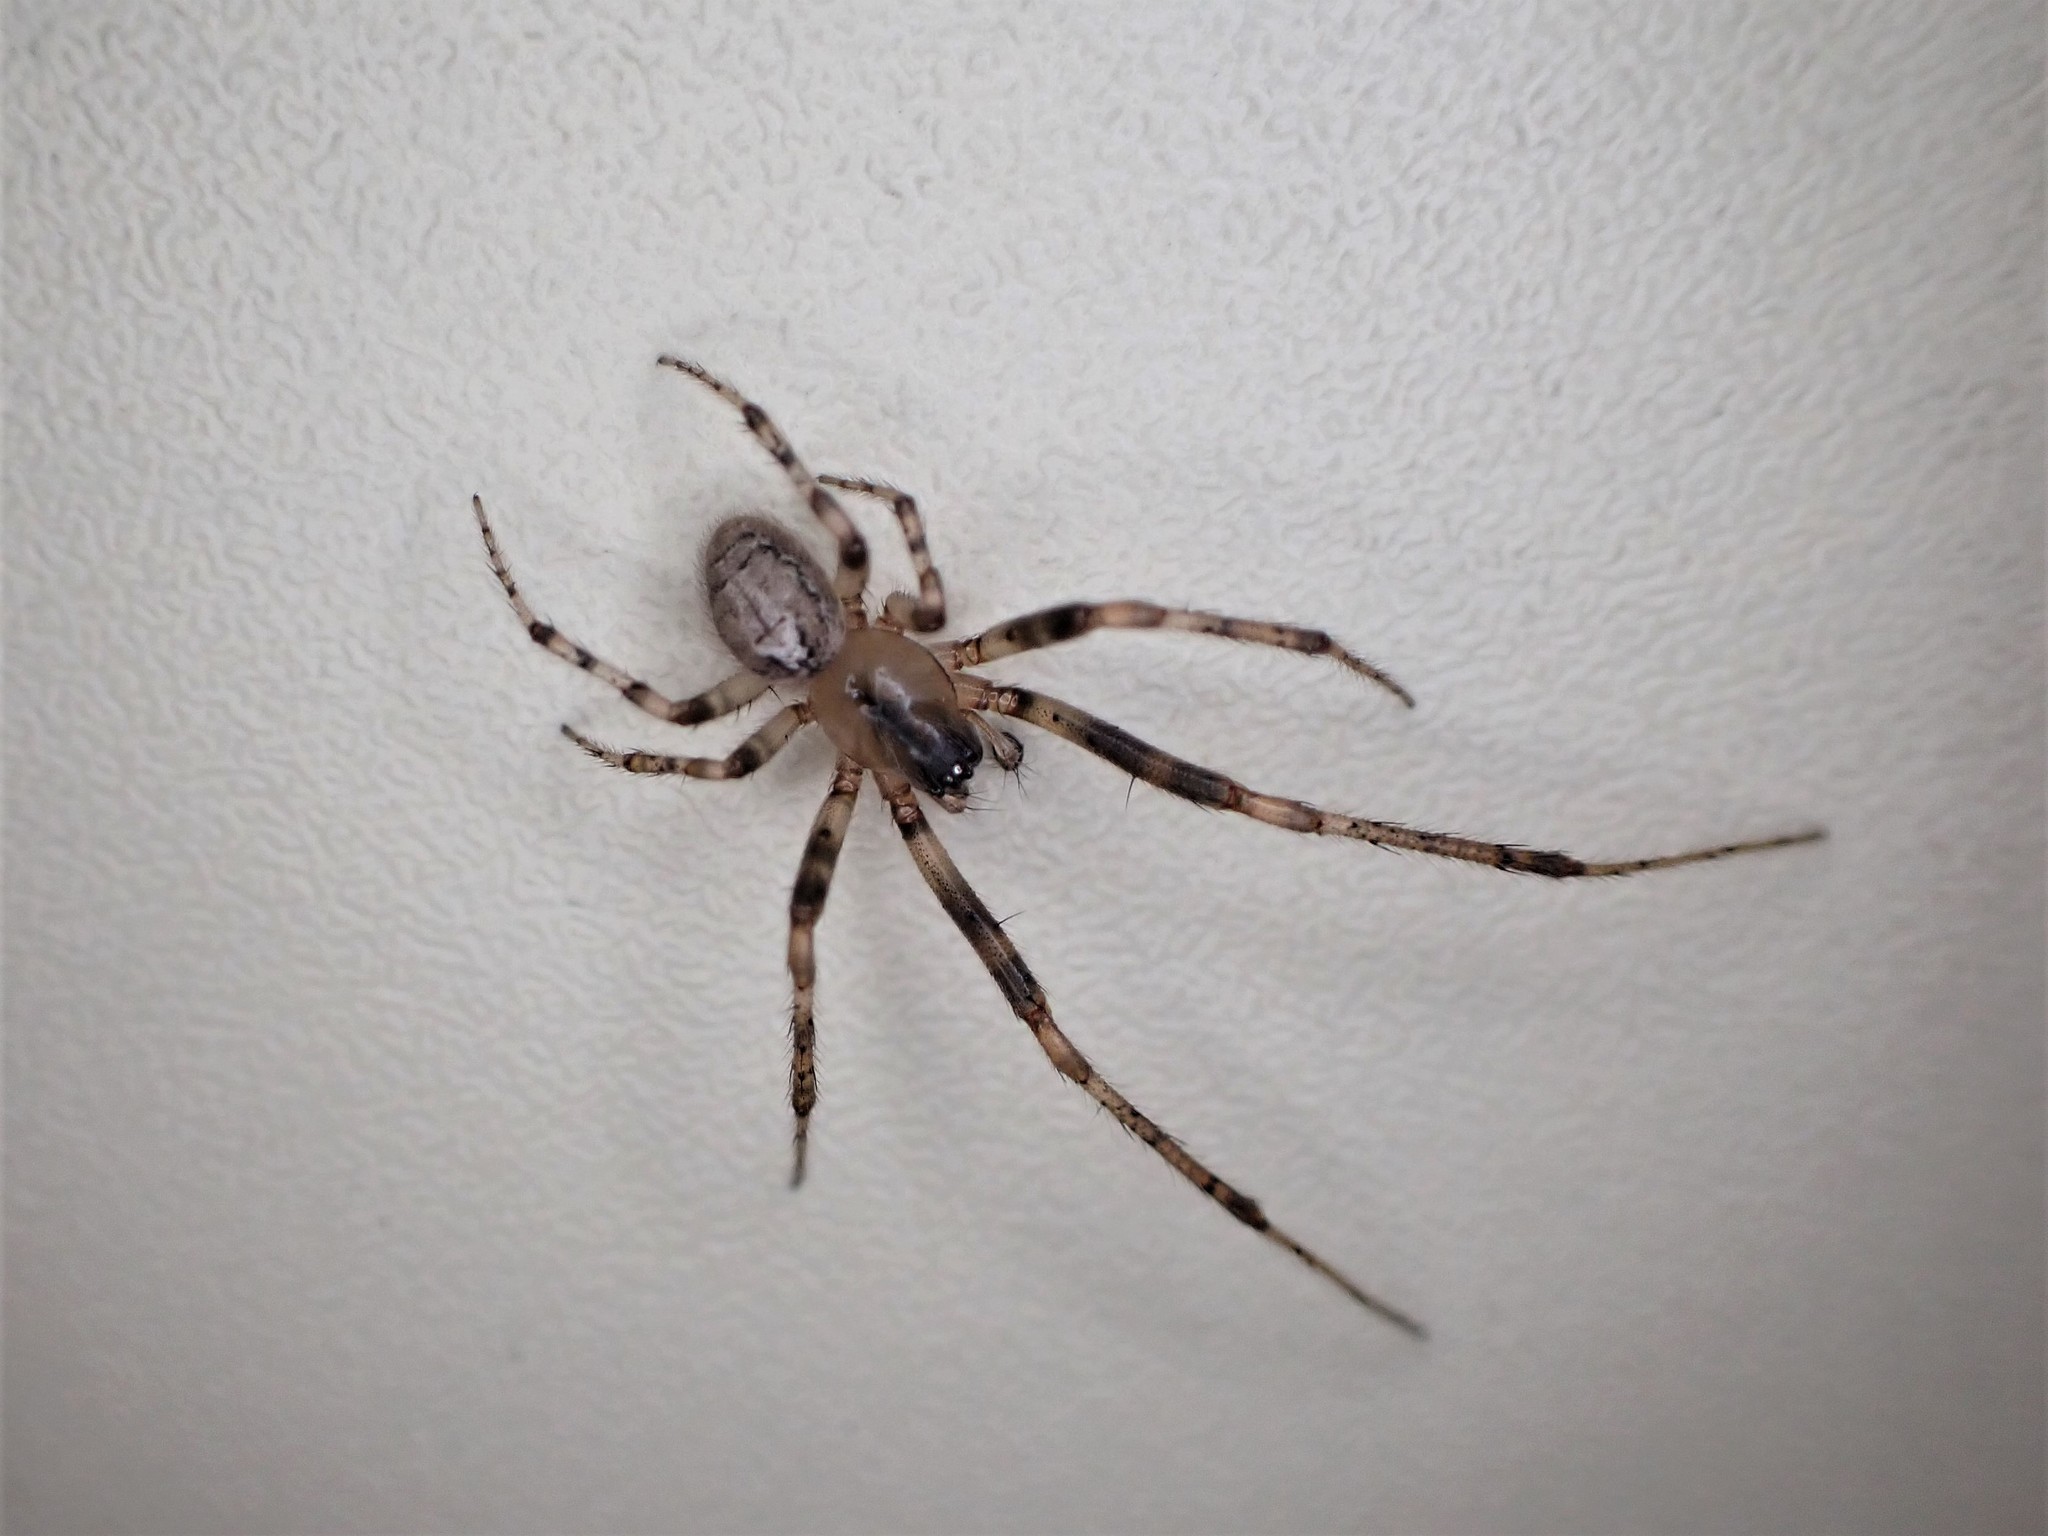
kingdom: Animalia
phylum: Arthropoda
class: Arachnida
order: Araneae
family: Araneidae
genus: Zygiella
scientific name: Zygiella x-notata
